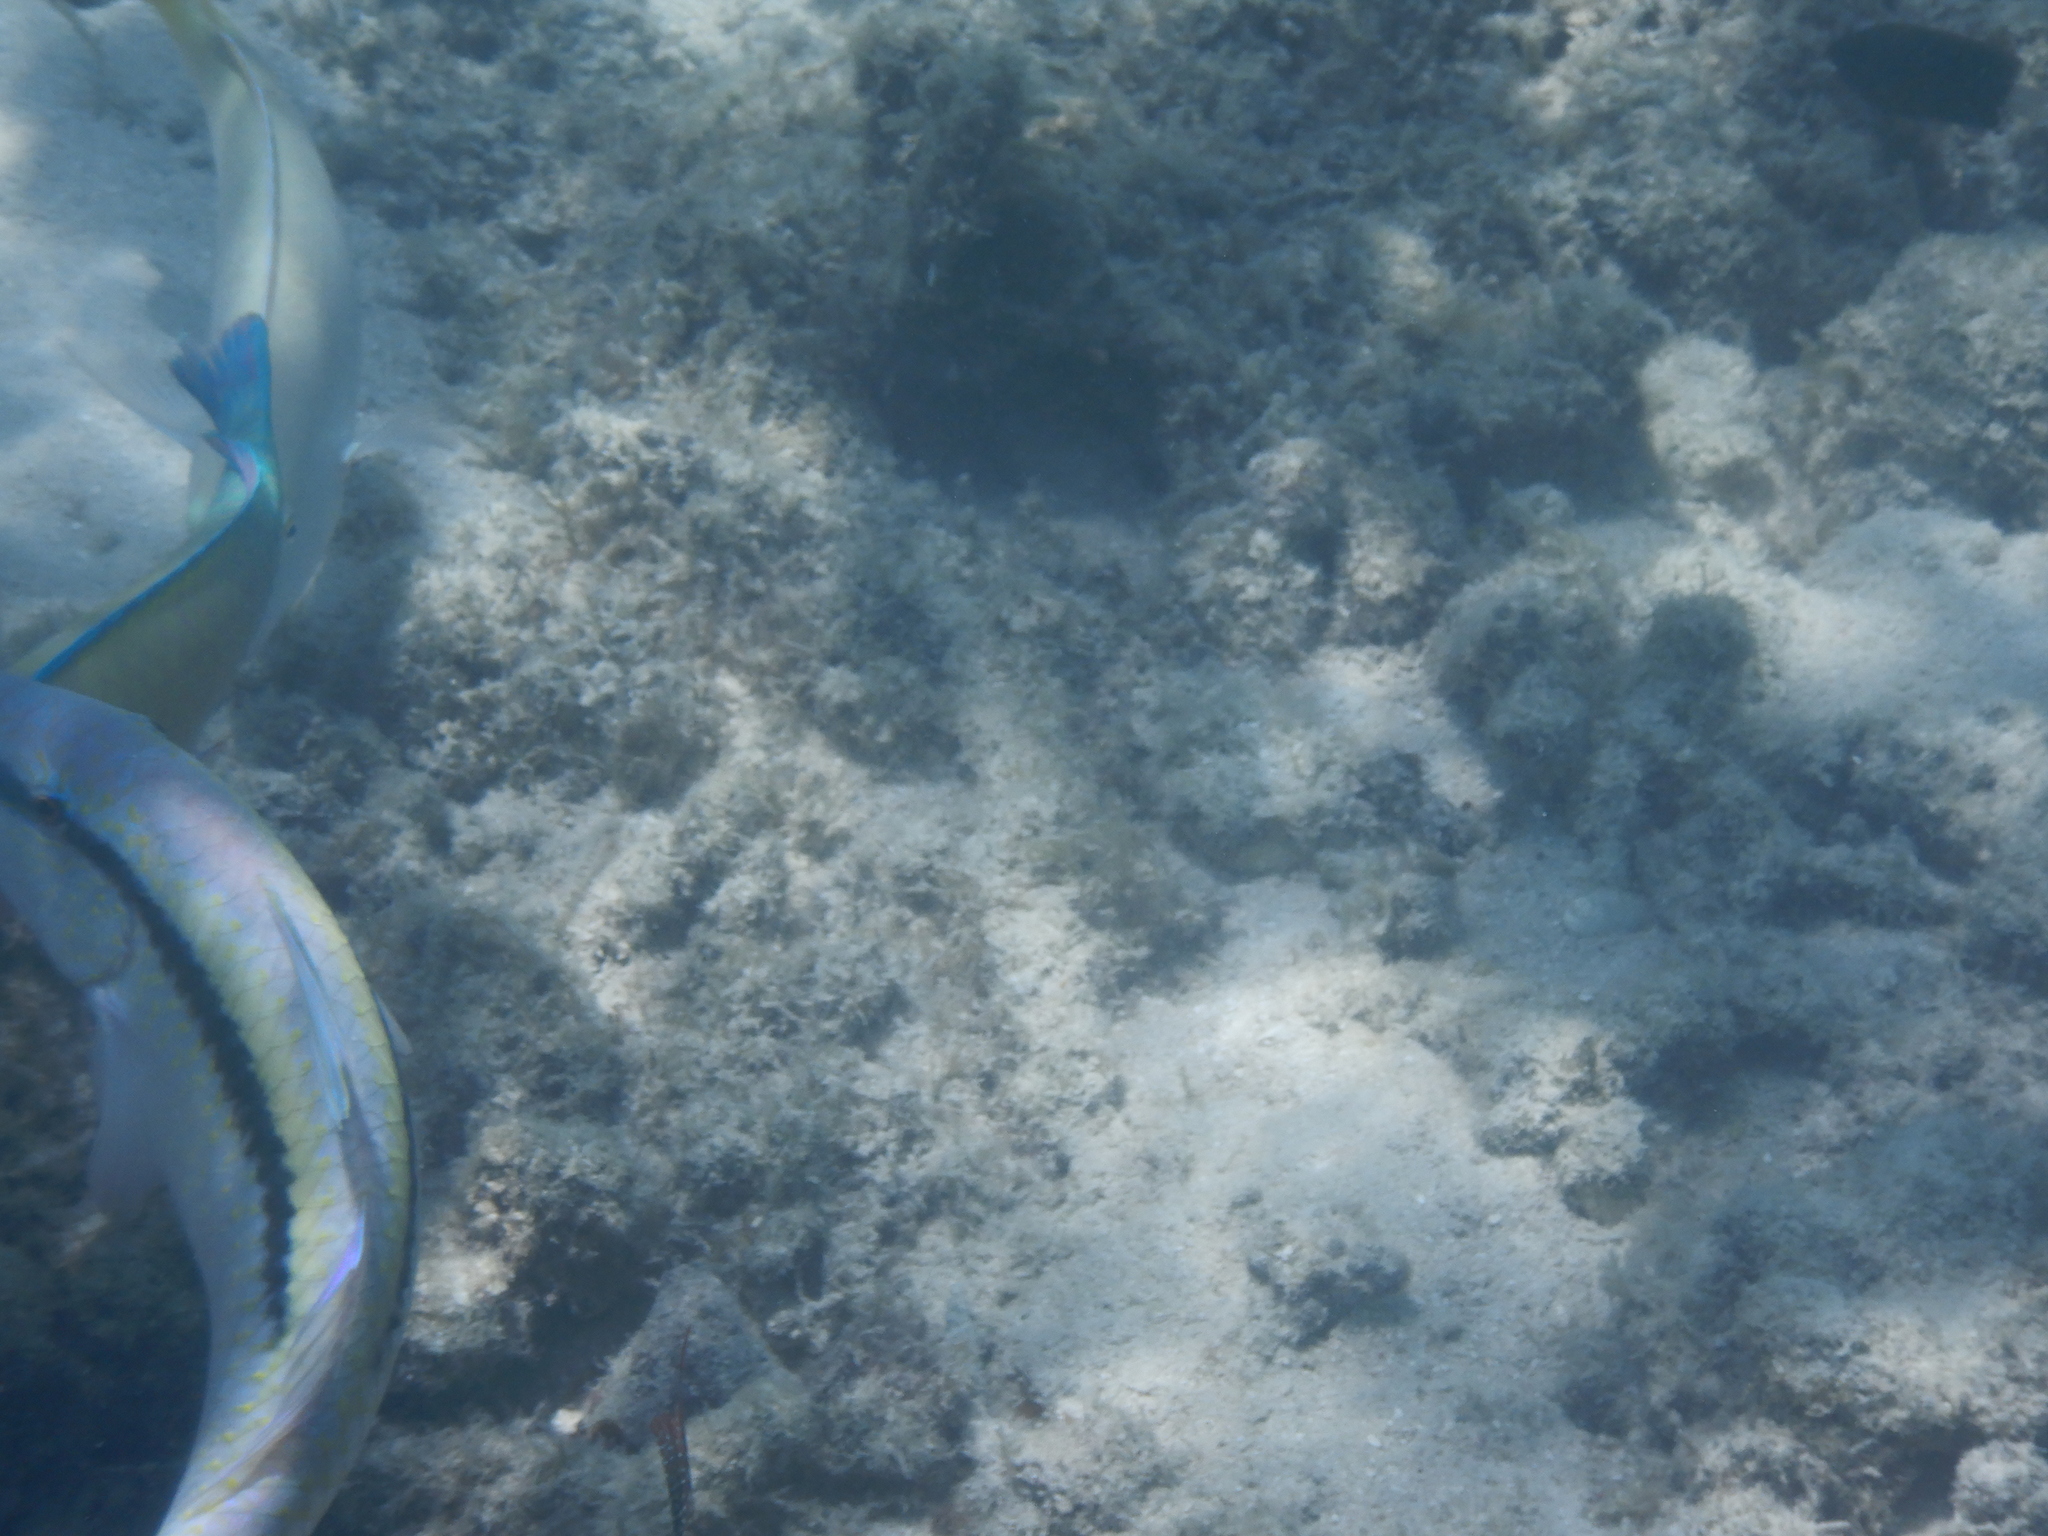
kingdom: Animalia
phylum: Chordata
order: Perciformes
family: Mullidae
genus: Parupeneus
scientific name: Parupeneus barberinus
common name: Dash-and-dot goatfish
